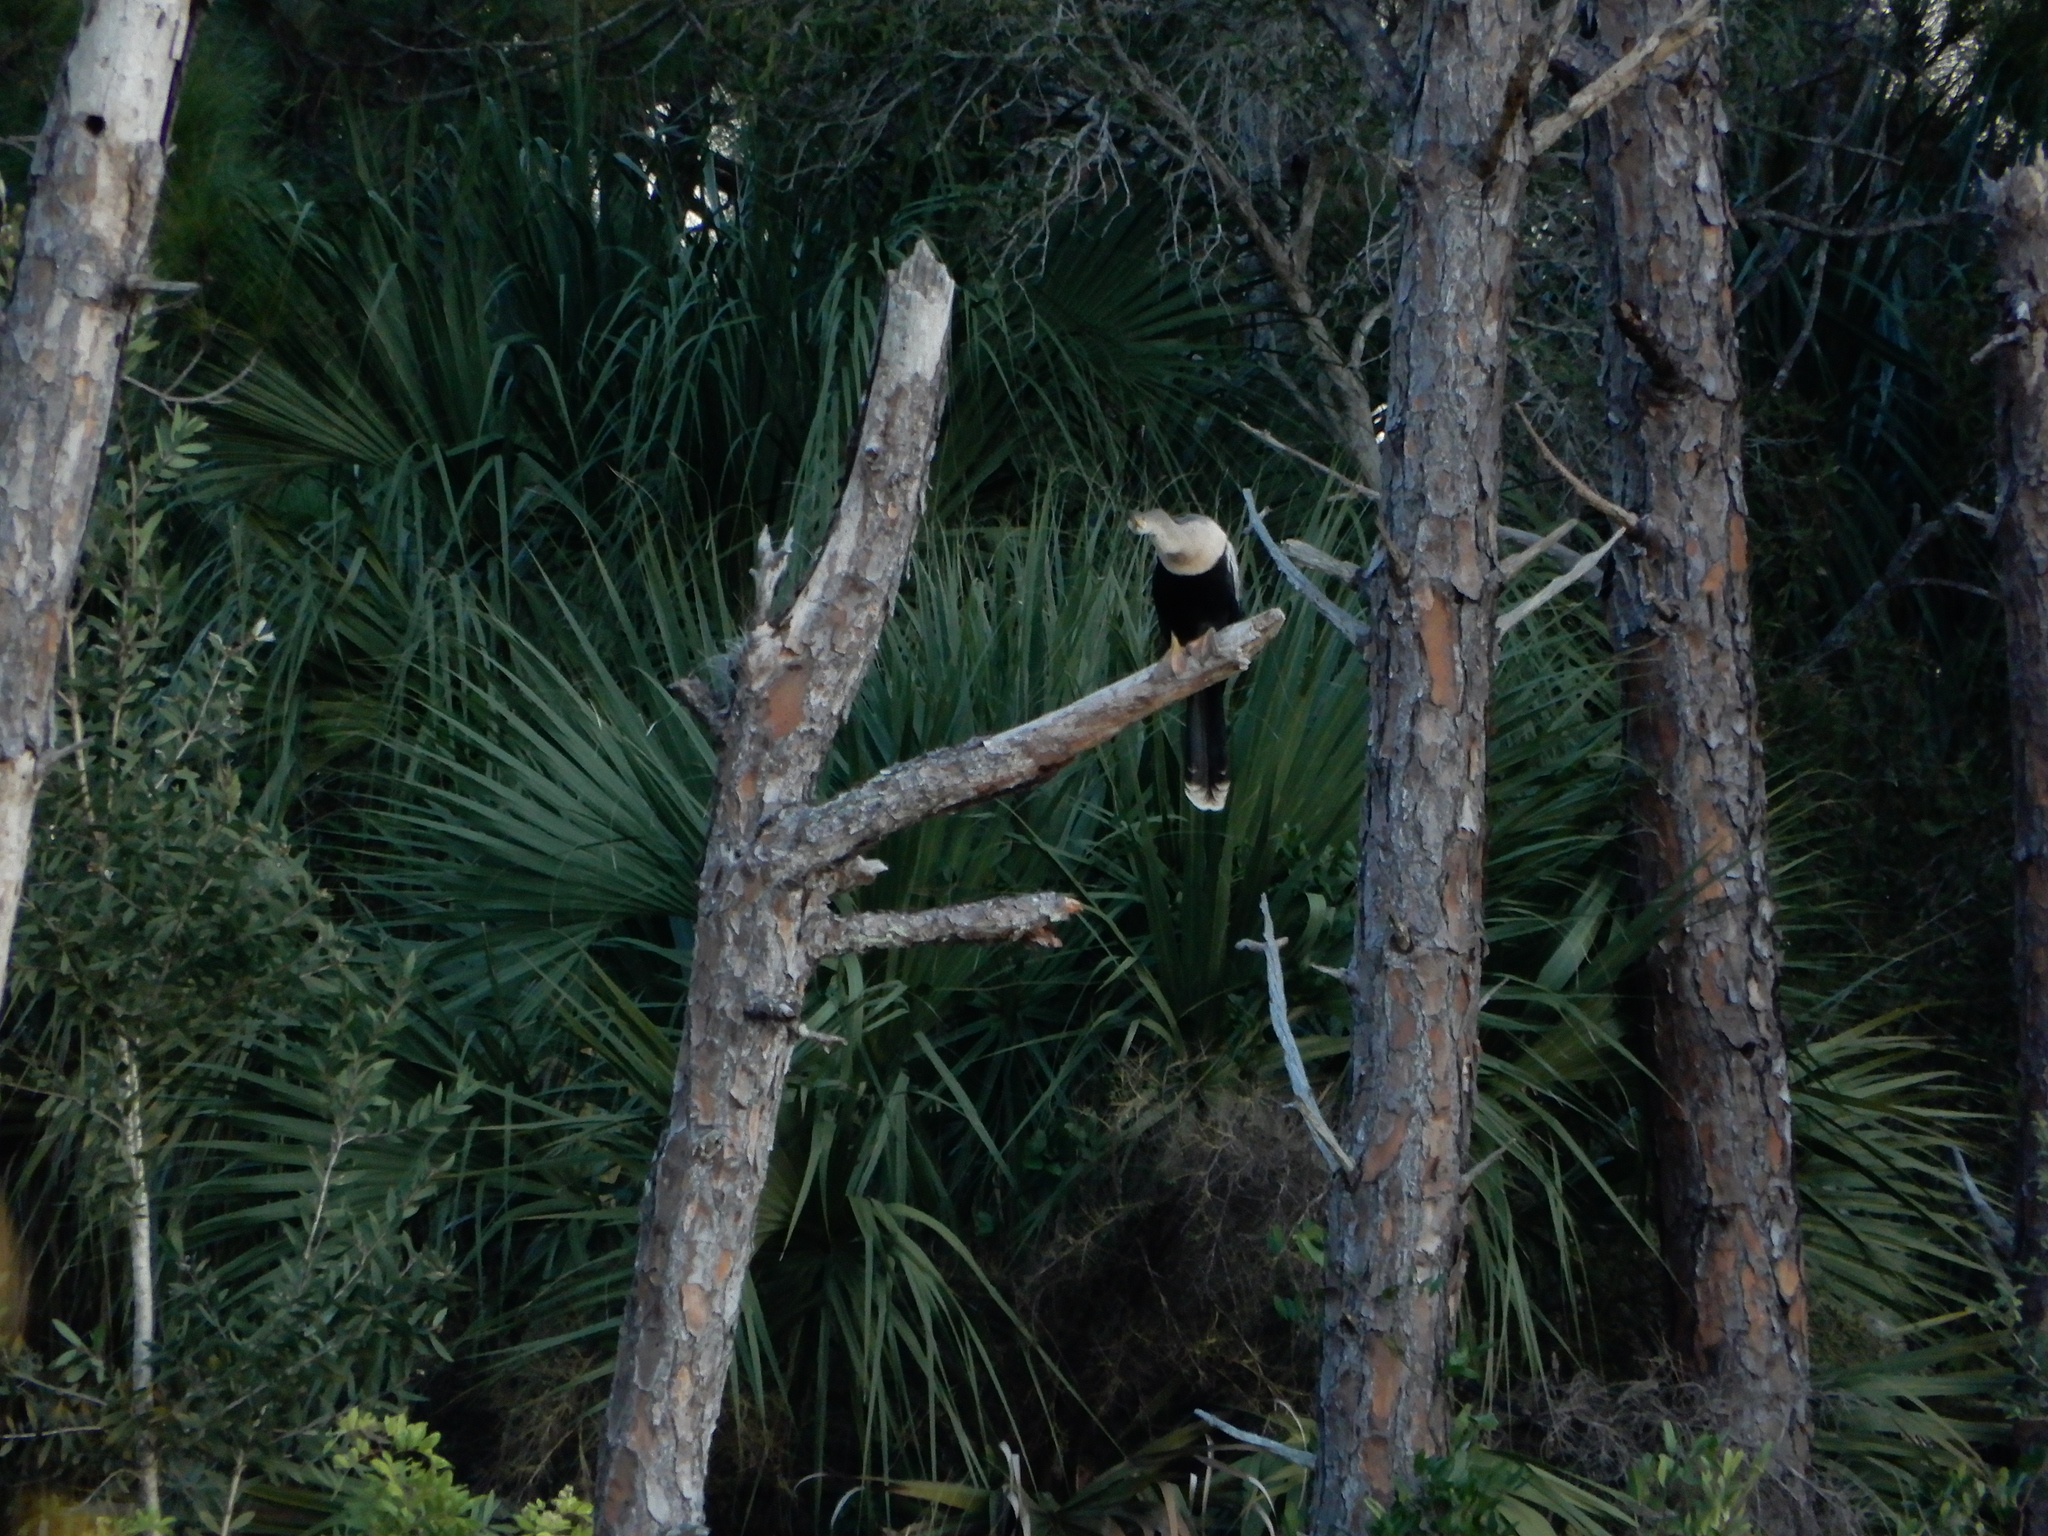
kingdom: Animalia
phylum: Chordata
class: Aves
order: Suliformes
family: Anhingidae
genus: Anhinga
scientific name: Anhinga anhinga
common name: Anhinga
